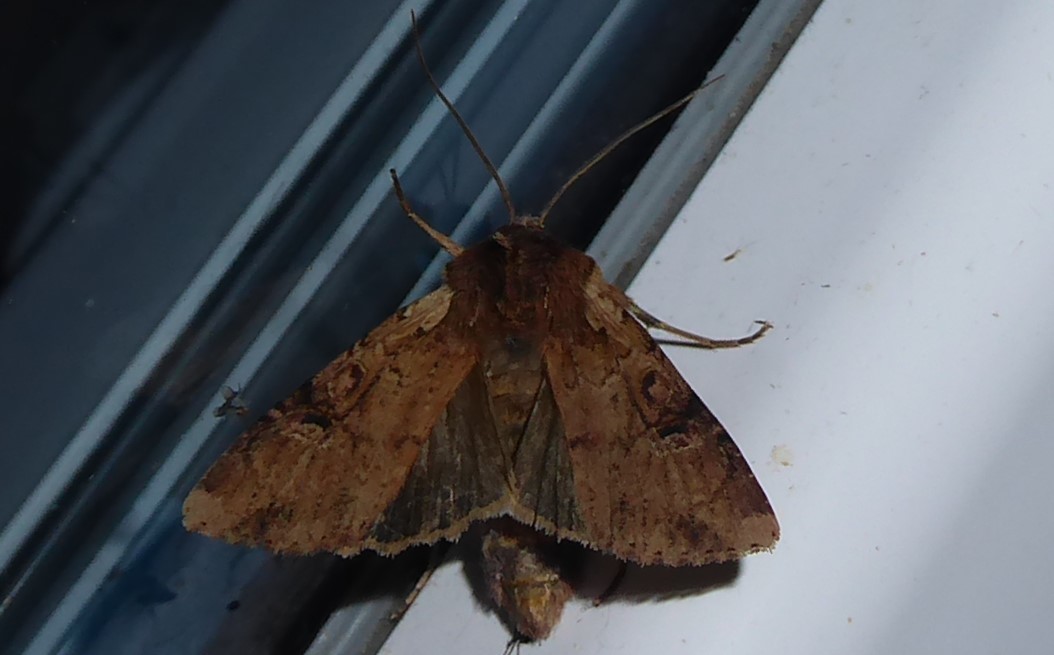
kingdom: Animalia
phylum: Arthropoda
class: Insecta
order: Lepidoptera
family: Noctuidae
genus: Ichneutica
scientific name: Ichneutica omoplaca
